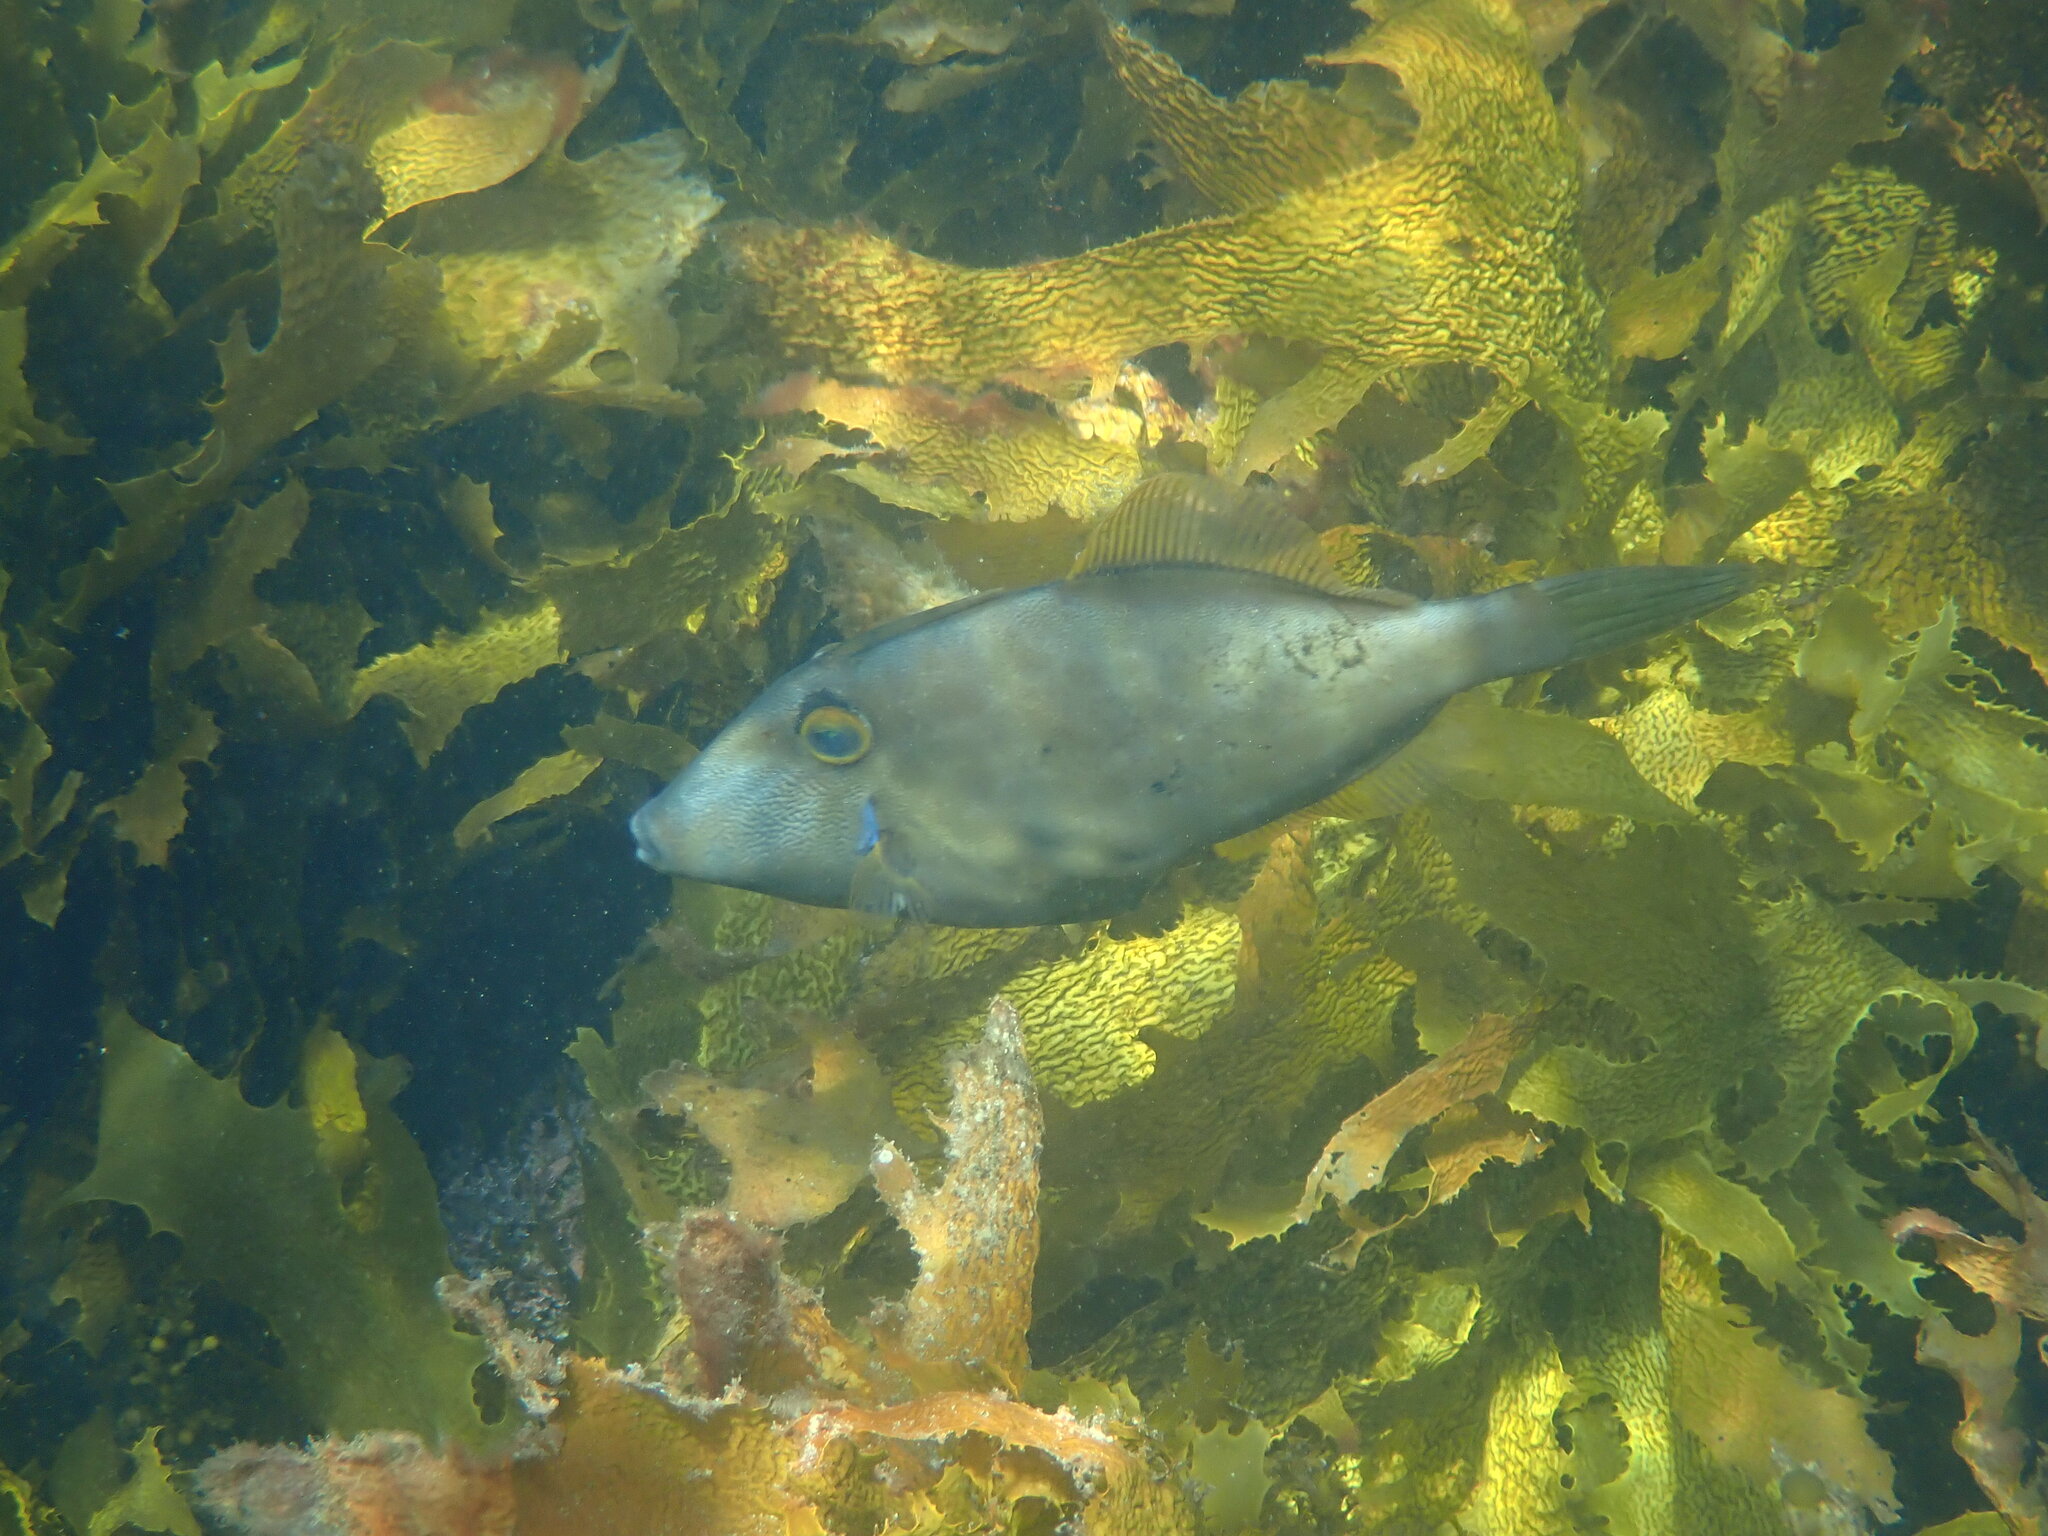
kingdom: Animalia
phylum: Chordata
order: Tetraodontiformes
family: Monacanthidae
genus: Meuschenia
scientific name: Meuschenia scaber
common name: Cosmopolitan leatherjacket
